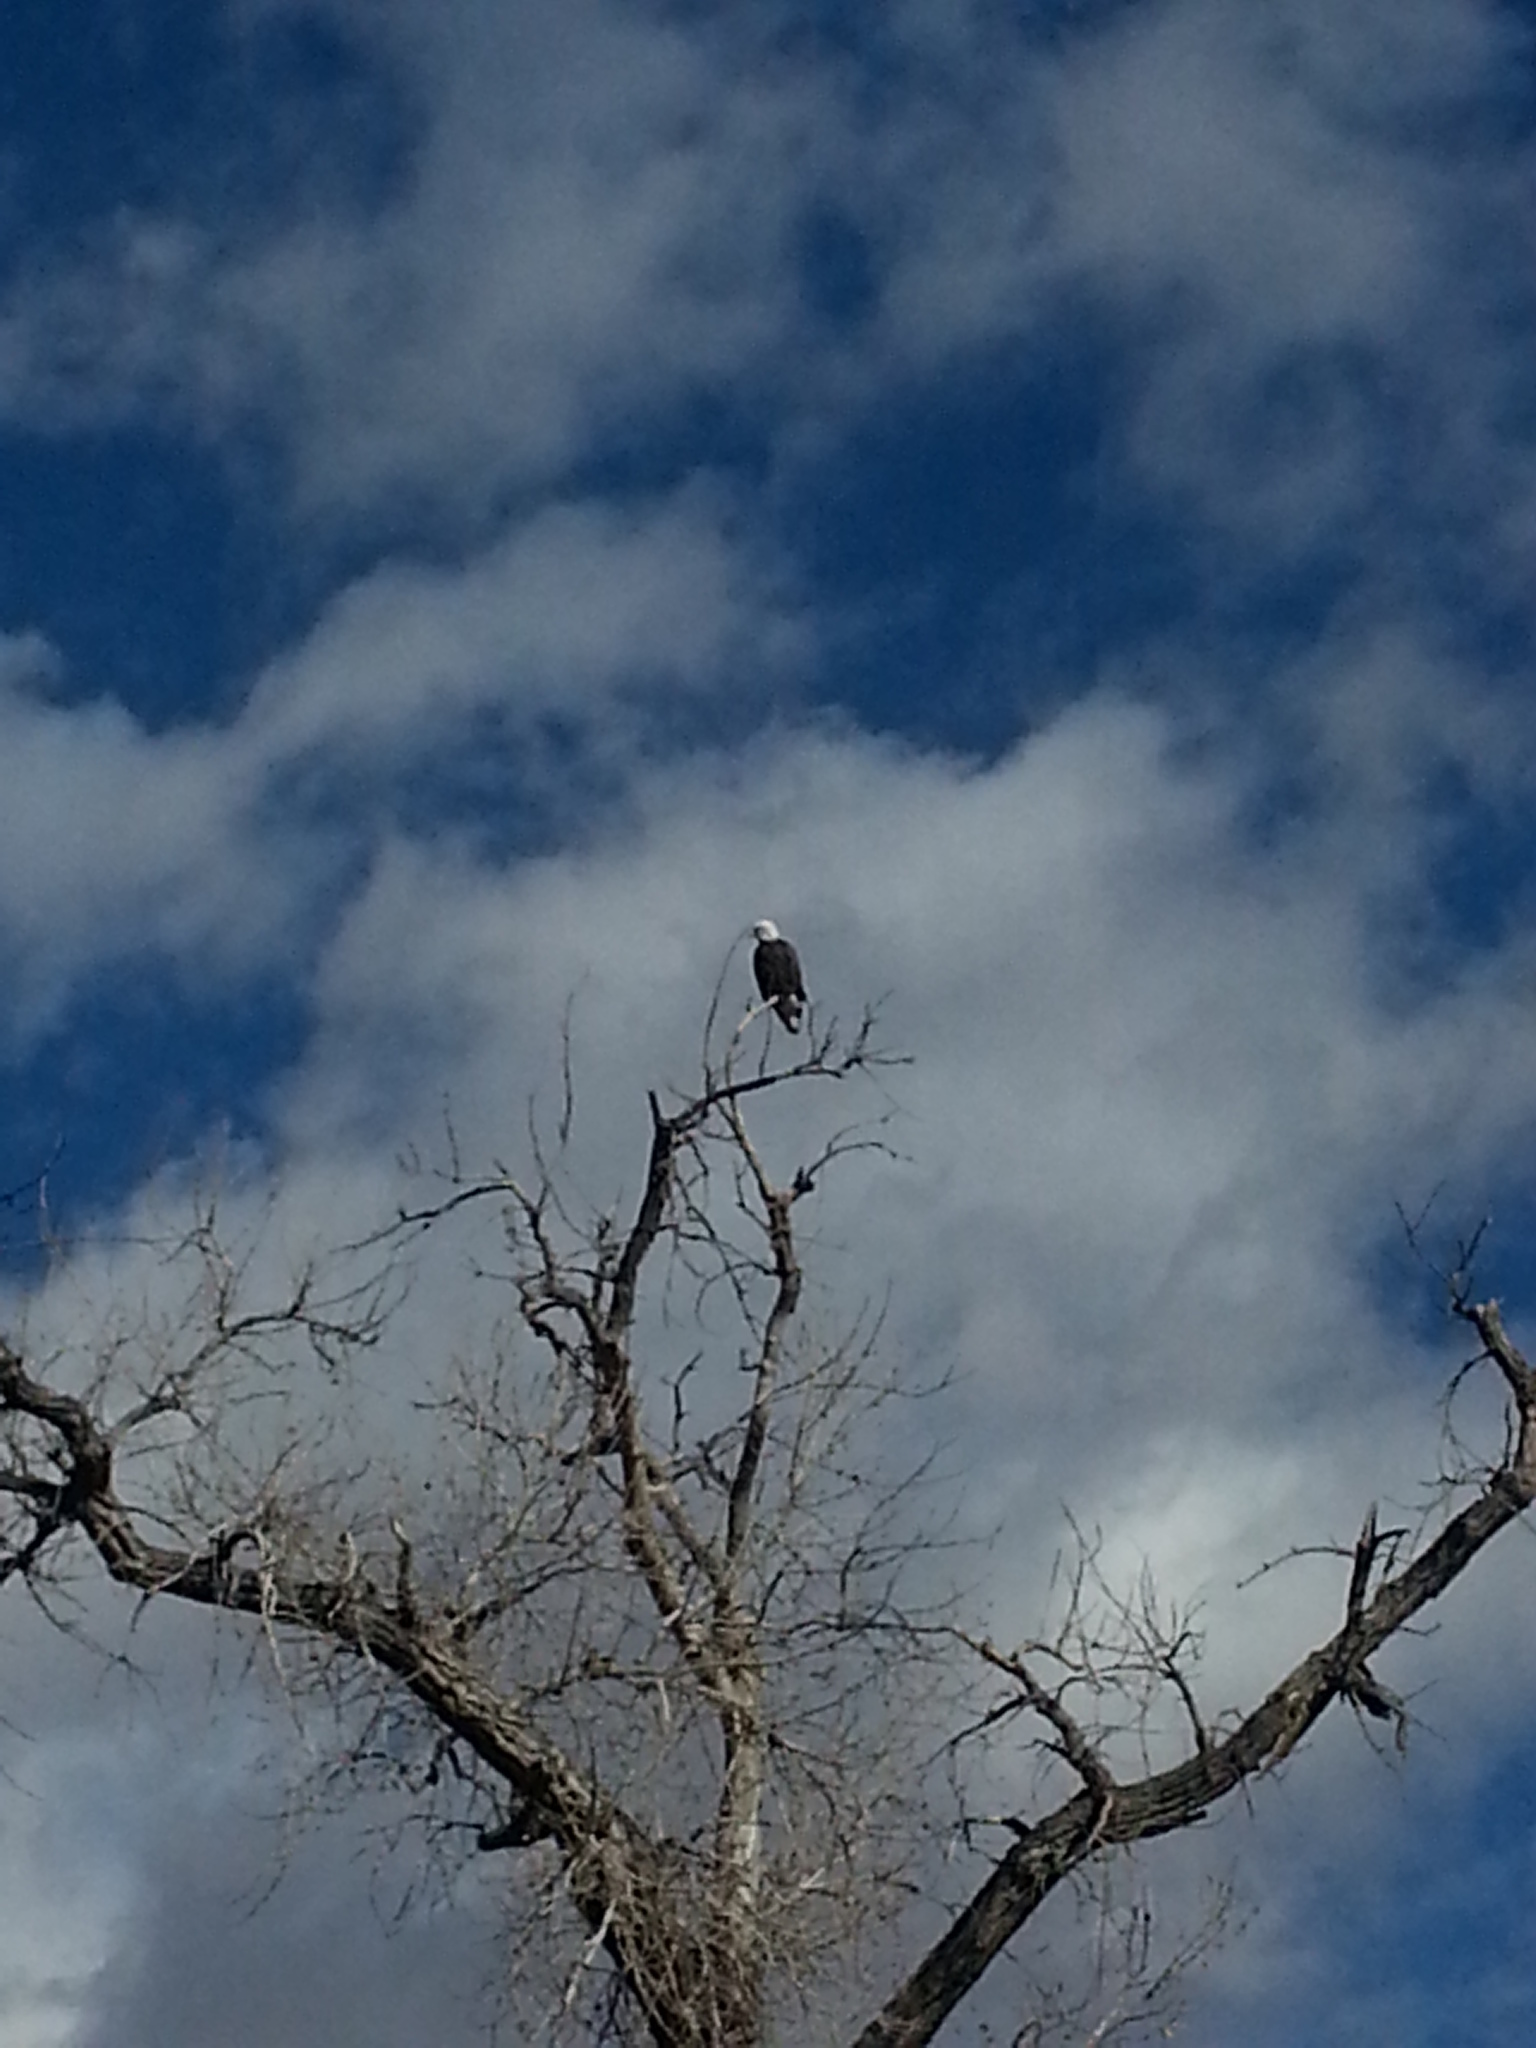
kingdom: Animalia
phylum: Chordata
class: Aves
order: Accipitriformes
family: Accipitridae
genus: Haliaeetus
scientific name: Haliaeetus leucocephalus
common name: Bald eagle
